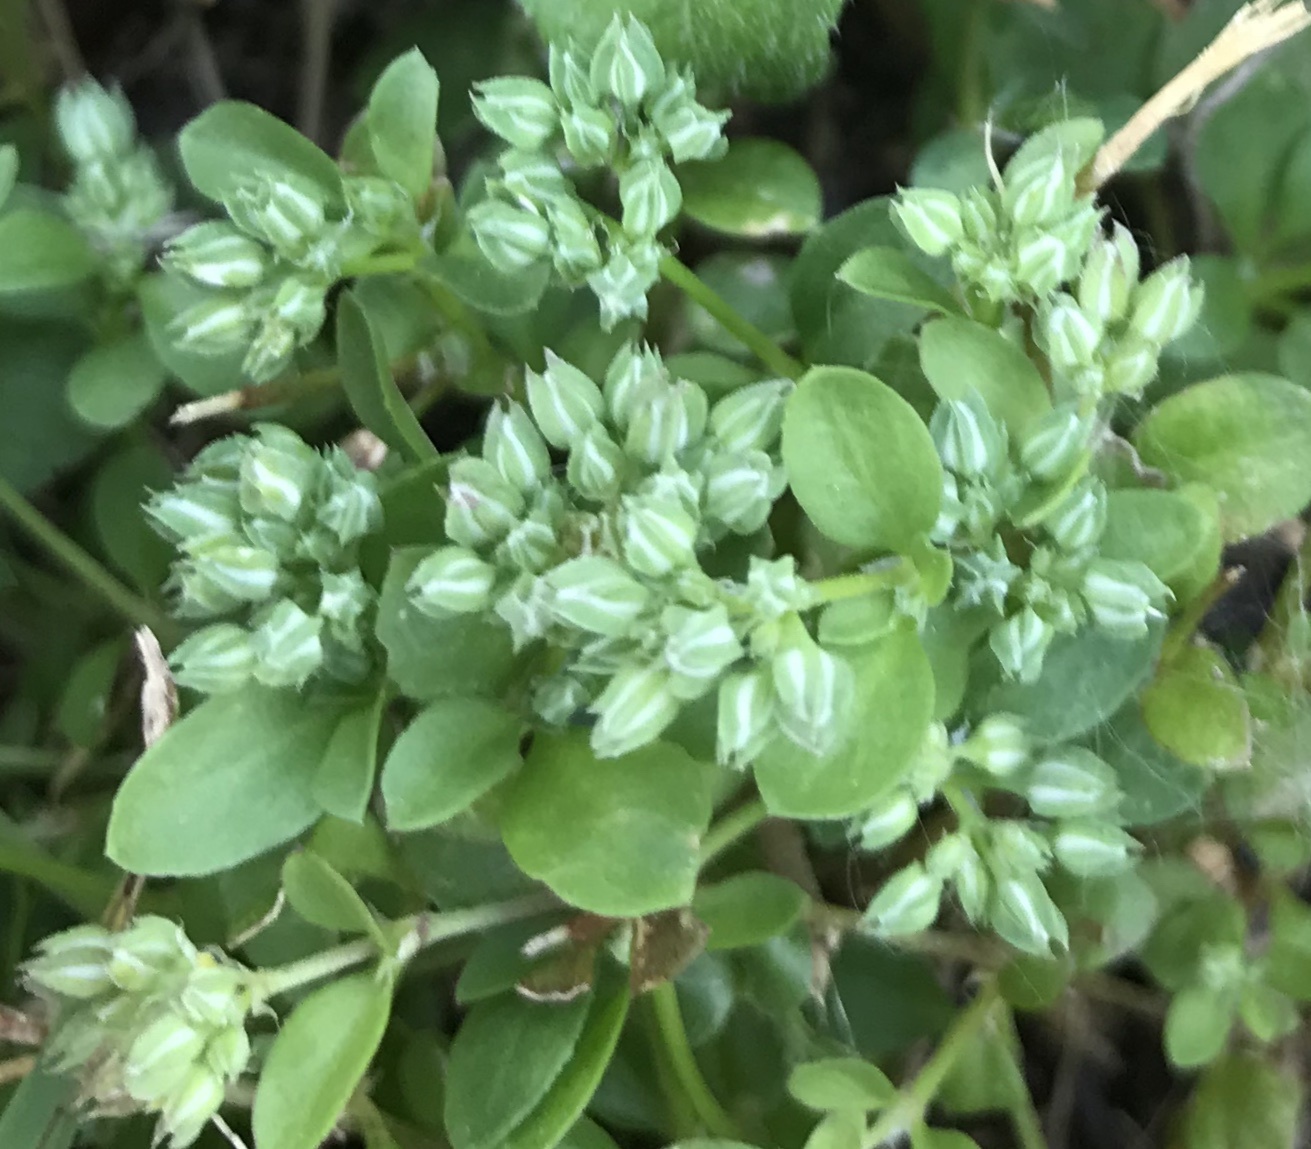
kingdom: Plantae
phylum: Tracheophyta
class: Magnoliopsida
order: Caryophyllales
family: Caryophyllaceae
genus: Polycarpon
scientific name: Polycarpon tetraphyllum
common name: Four-leaved all-seed
